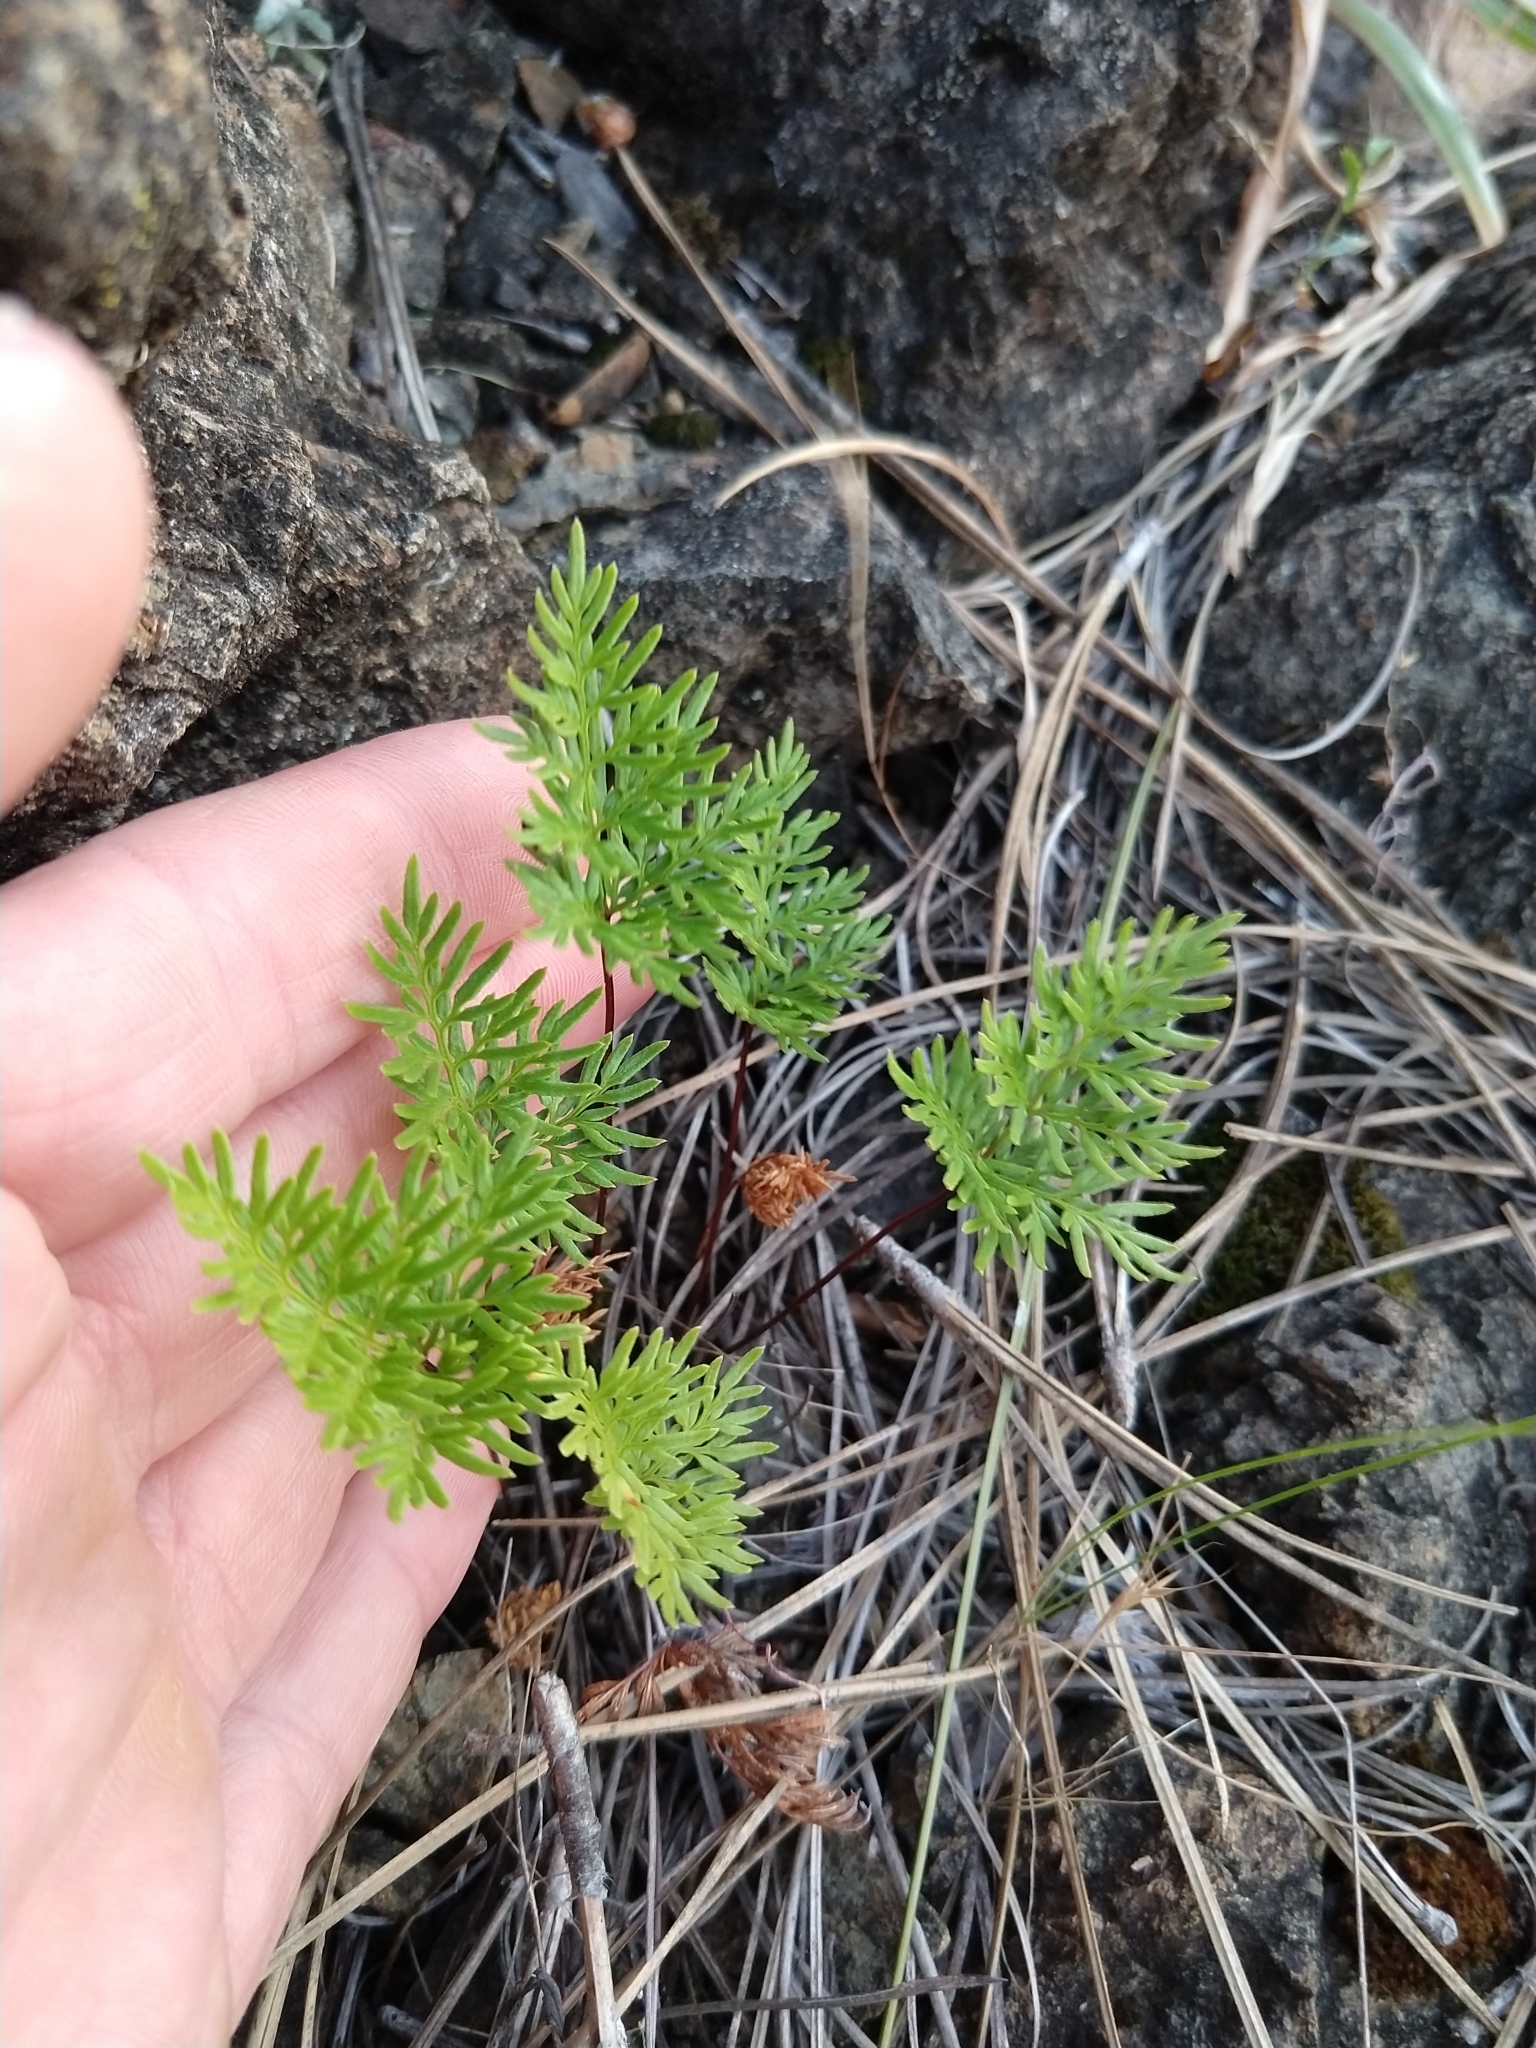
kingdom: Plantae
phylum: Tracheophyta
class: Polypodiopsida
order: Polypodiales
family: Pteridaceae
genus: Aspidotis
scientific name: Aspidotis densa
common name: Indian's dream
